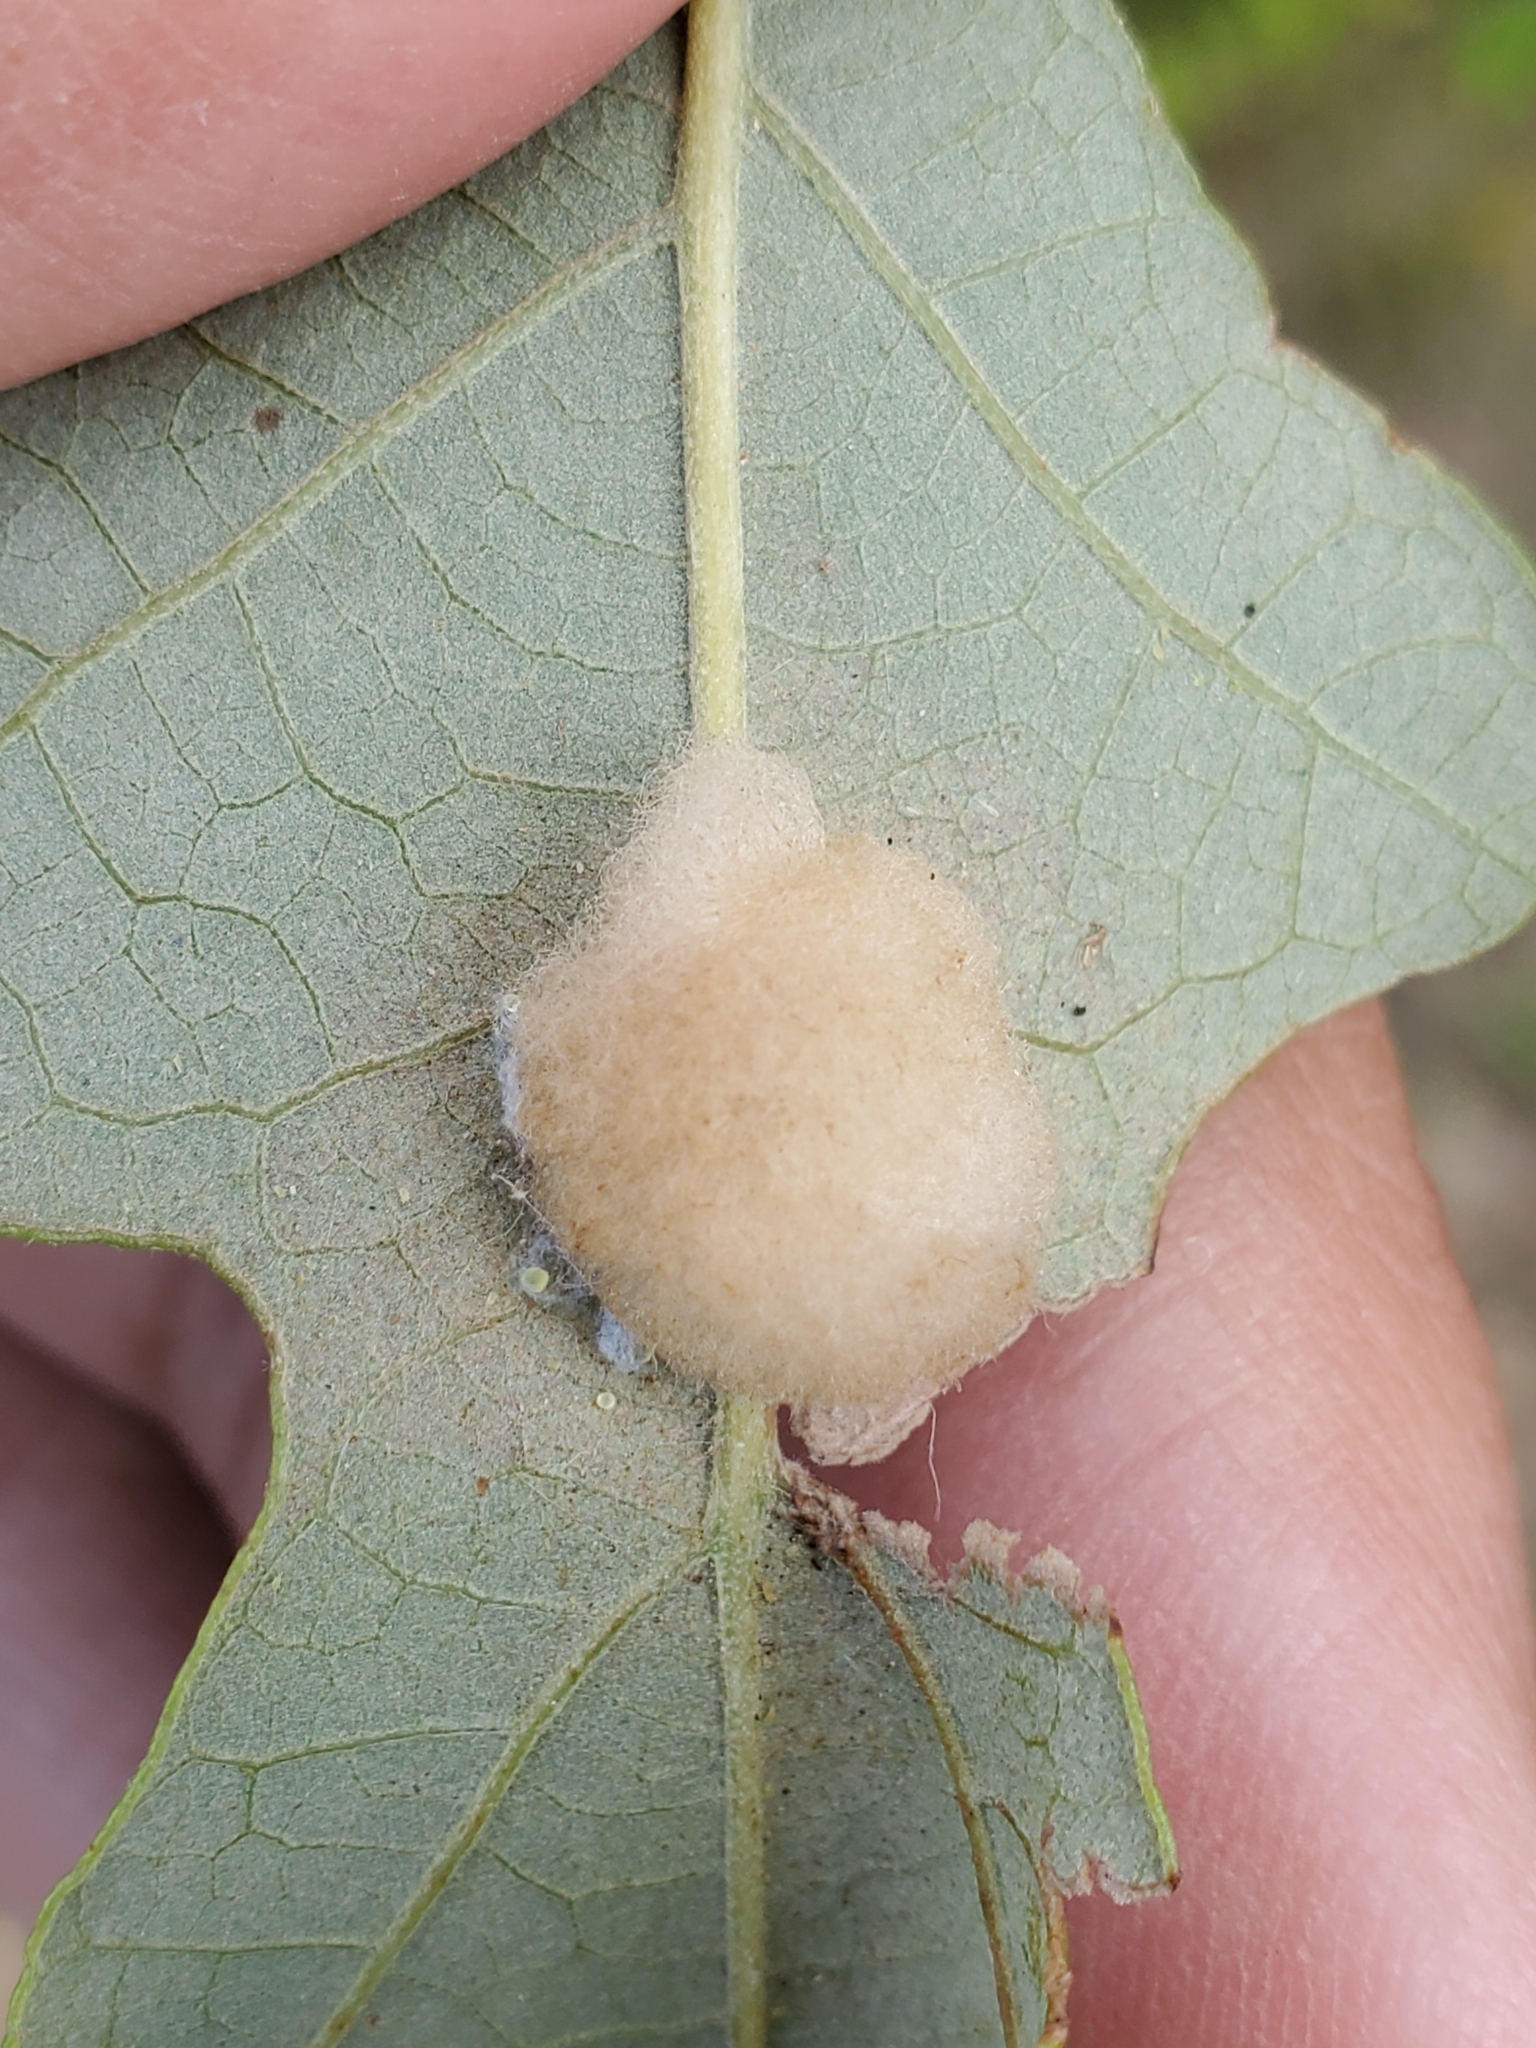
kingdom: Animalia
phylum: Arthropoda
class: Insecta
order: Hymenoptera
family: Cynipidae
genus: Andricus
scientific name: Andricus Druon ignotum
